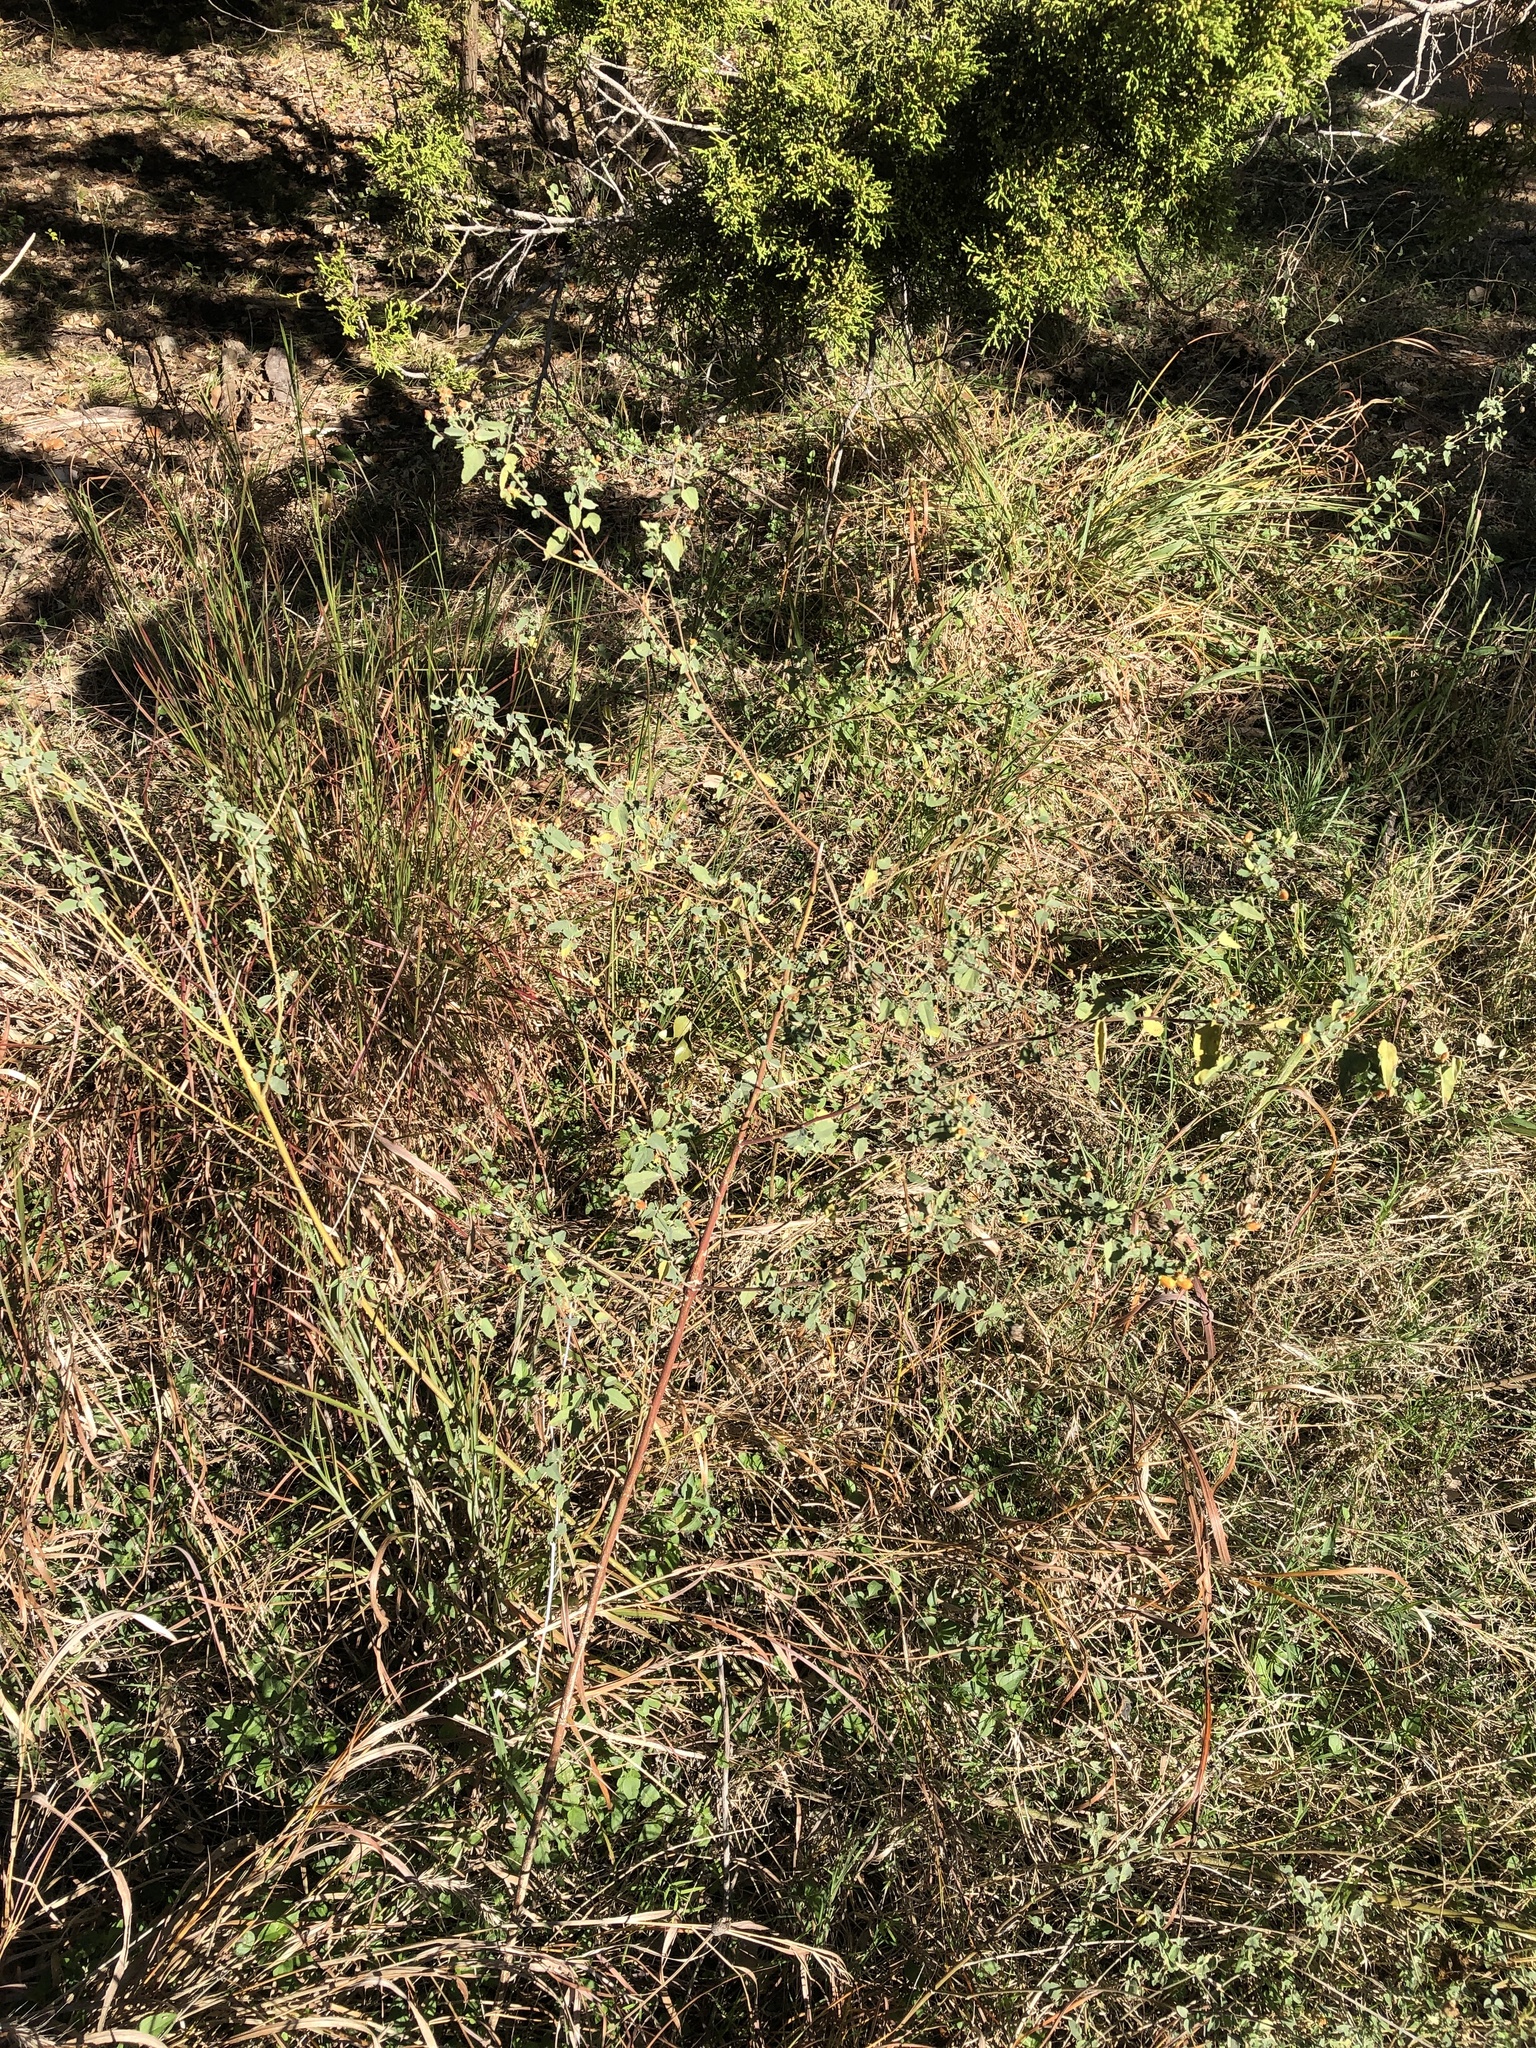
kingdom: Plantae
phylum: Tracheophyta
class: Magnoliopsida
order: Malvales
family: Malvaceae
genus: Abutilon
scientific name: Abutilon fruticosum
